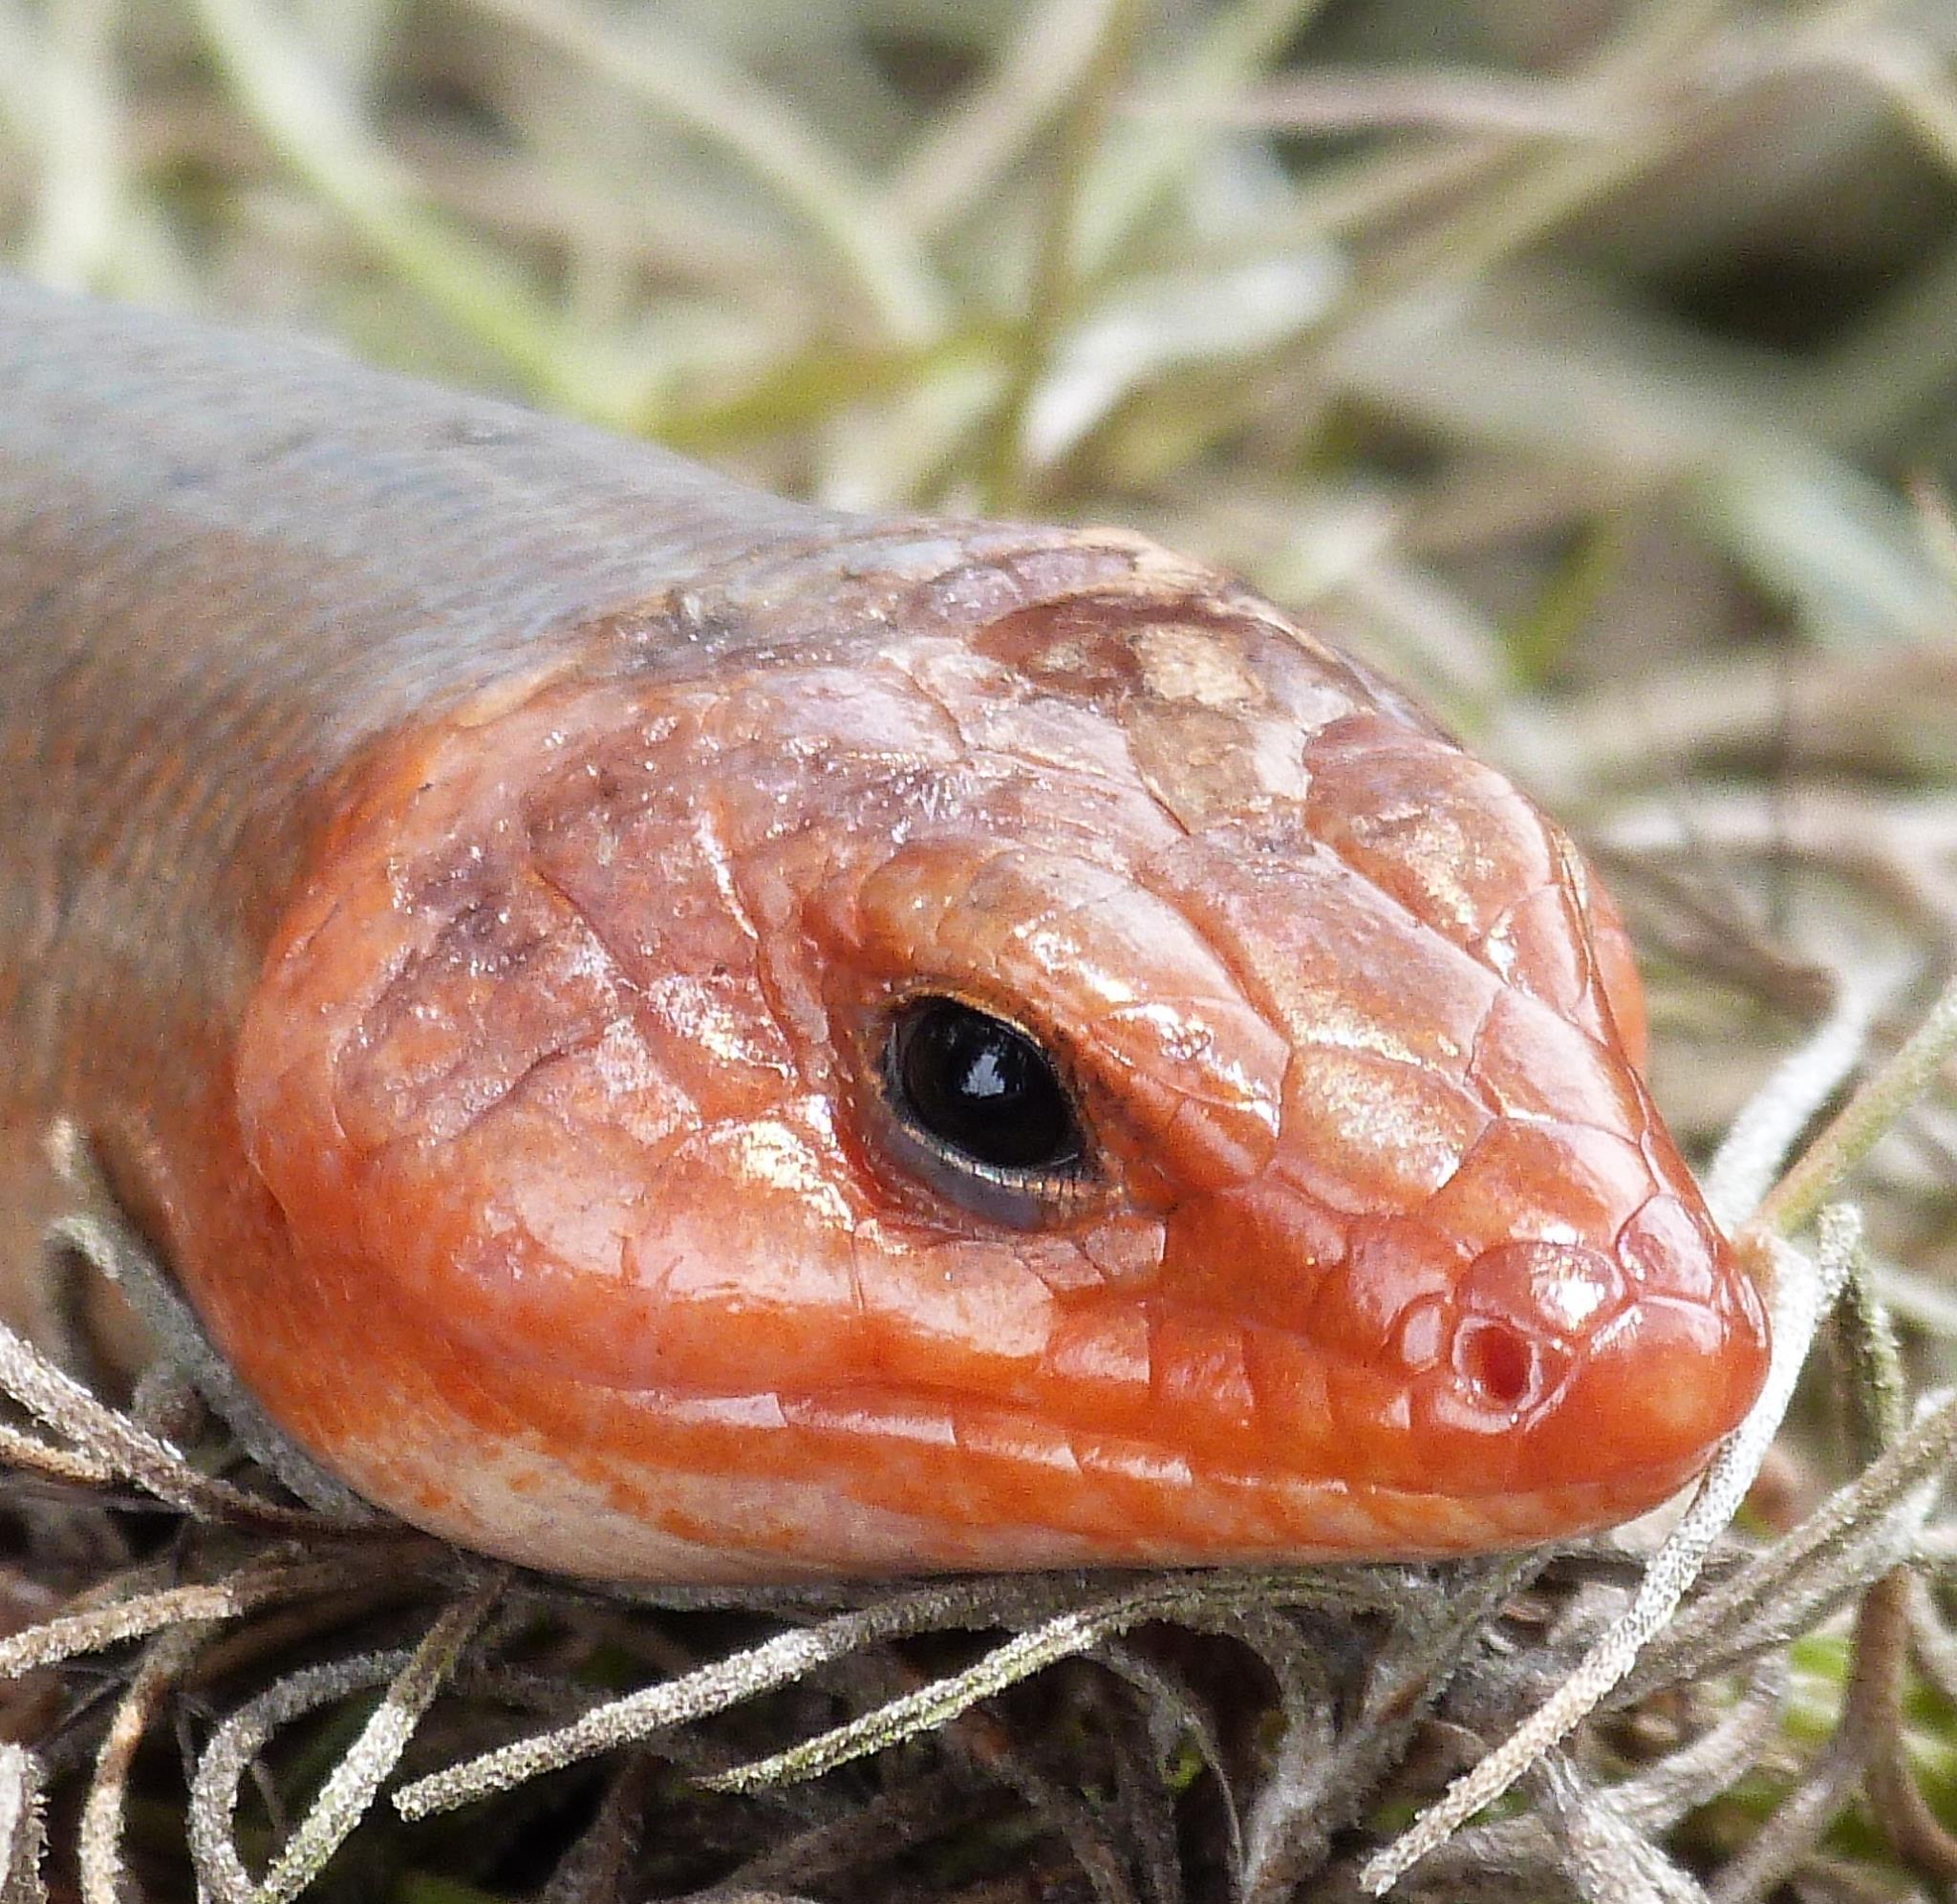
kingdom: Animalia
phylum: Chordata
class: Squamata
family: Scincidae
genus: Plestiodon
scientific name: Plestiodon laticeps
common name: Broadhead skink
